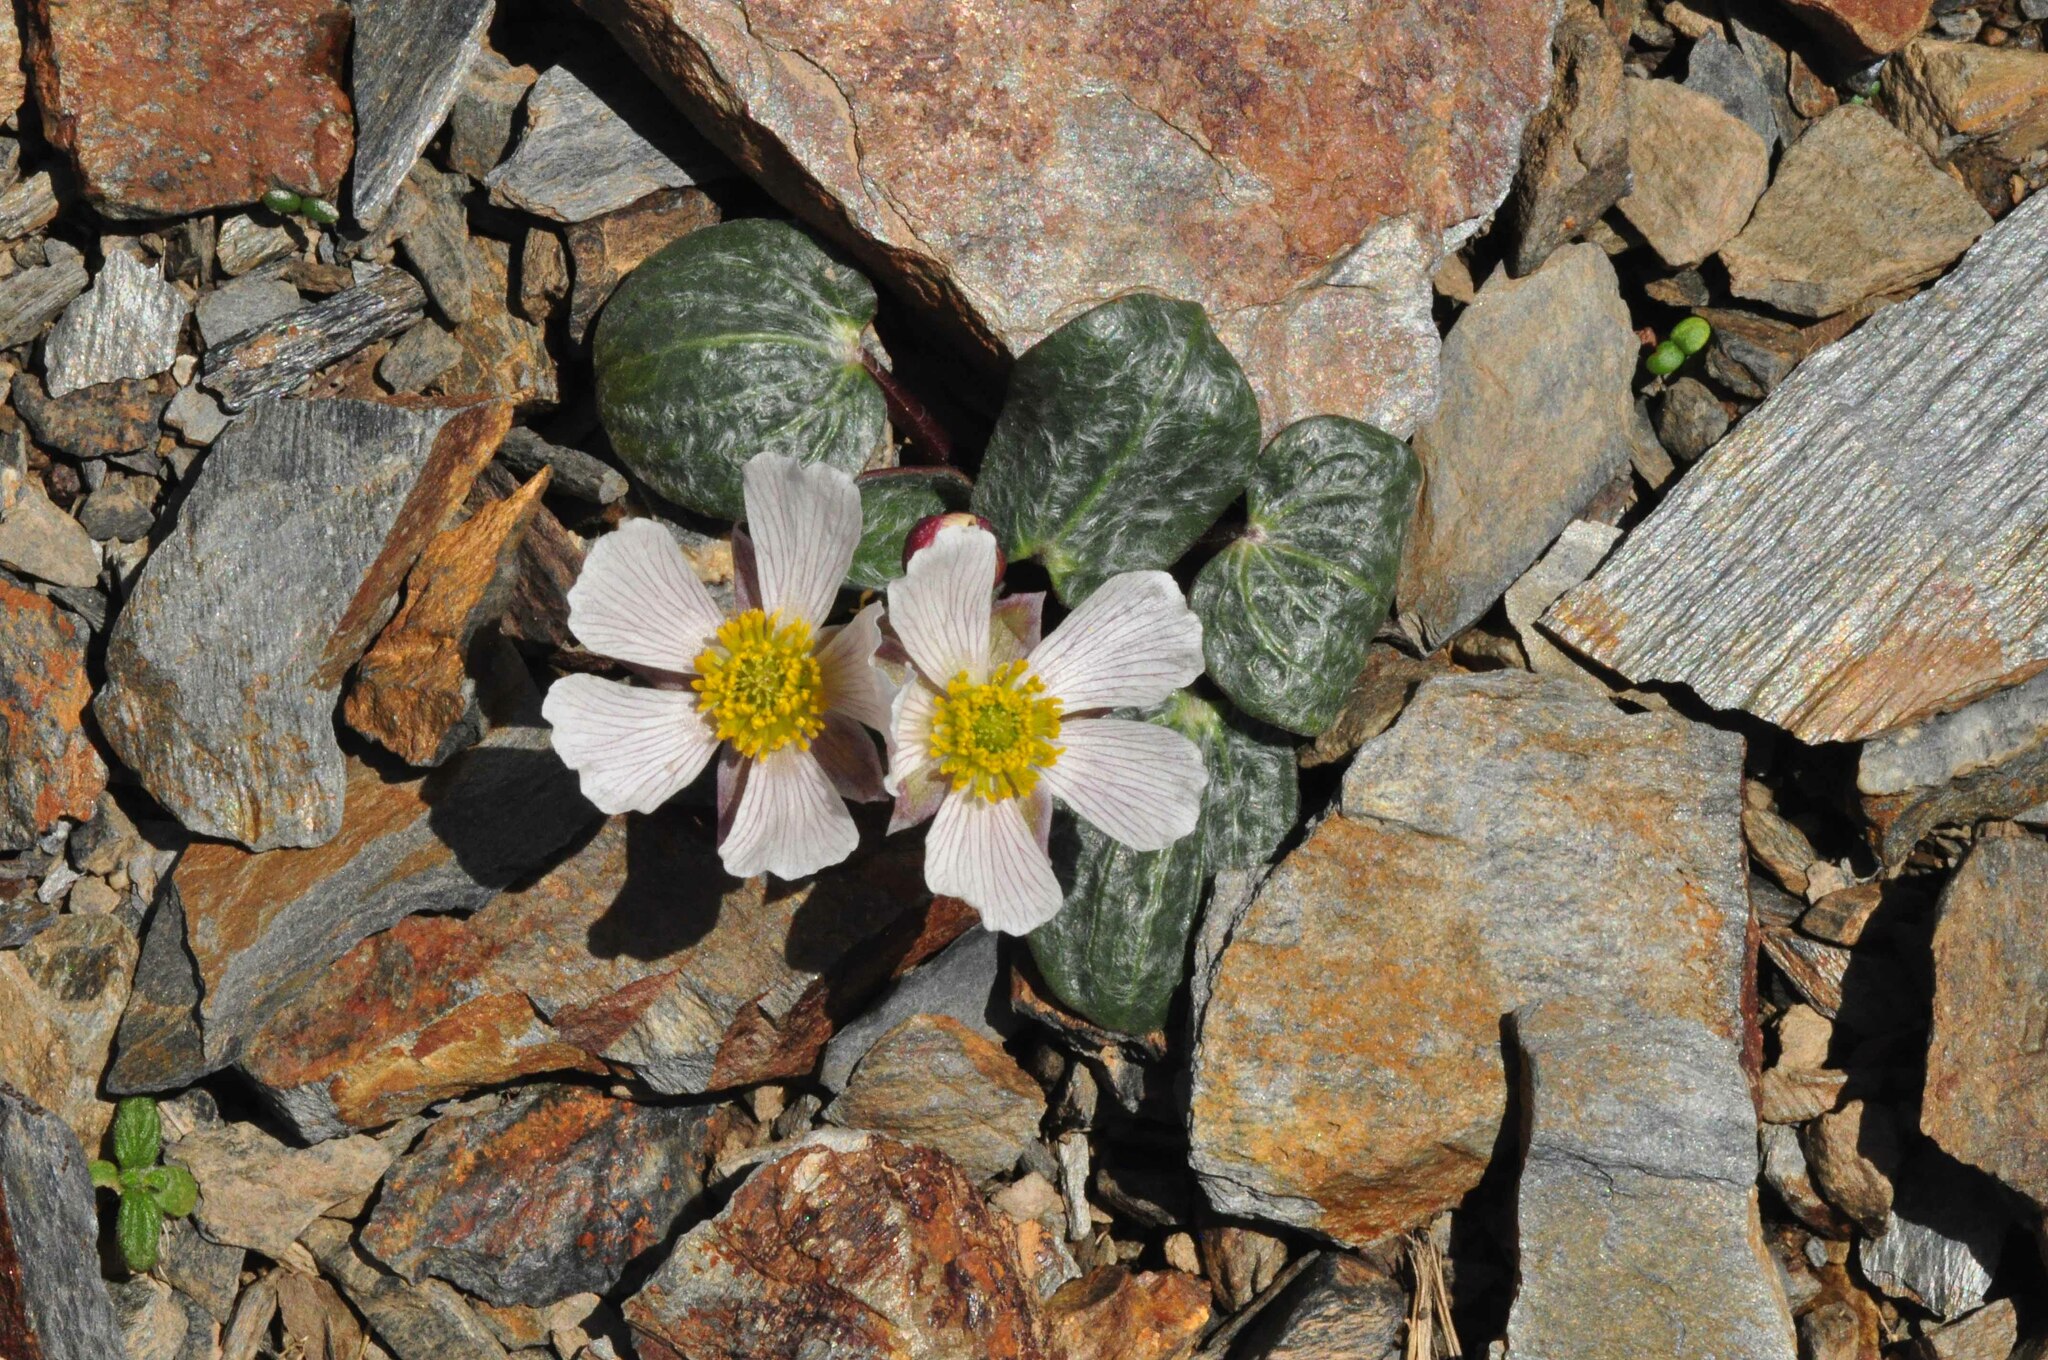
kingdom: Plantae
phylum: Tracheophyta
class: Magnoliopsida
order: Ranunculales
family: Ranunculaceae
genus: Ranunculus
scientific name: Ranunculus parnassiifolius
